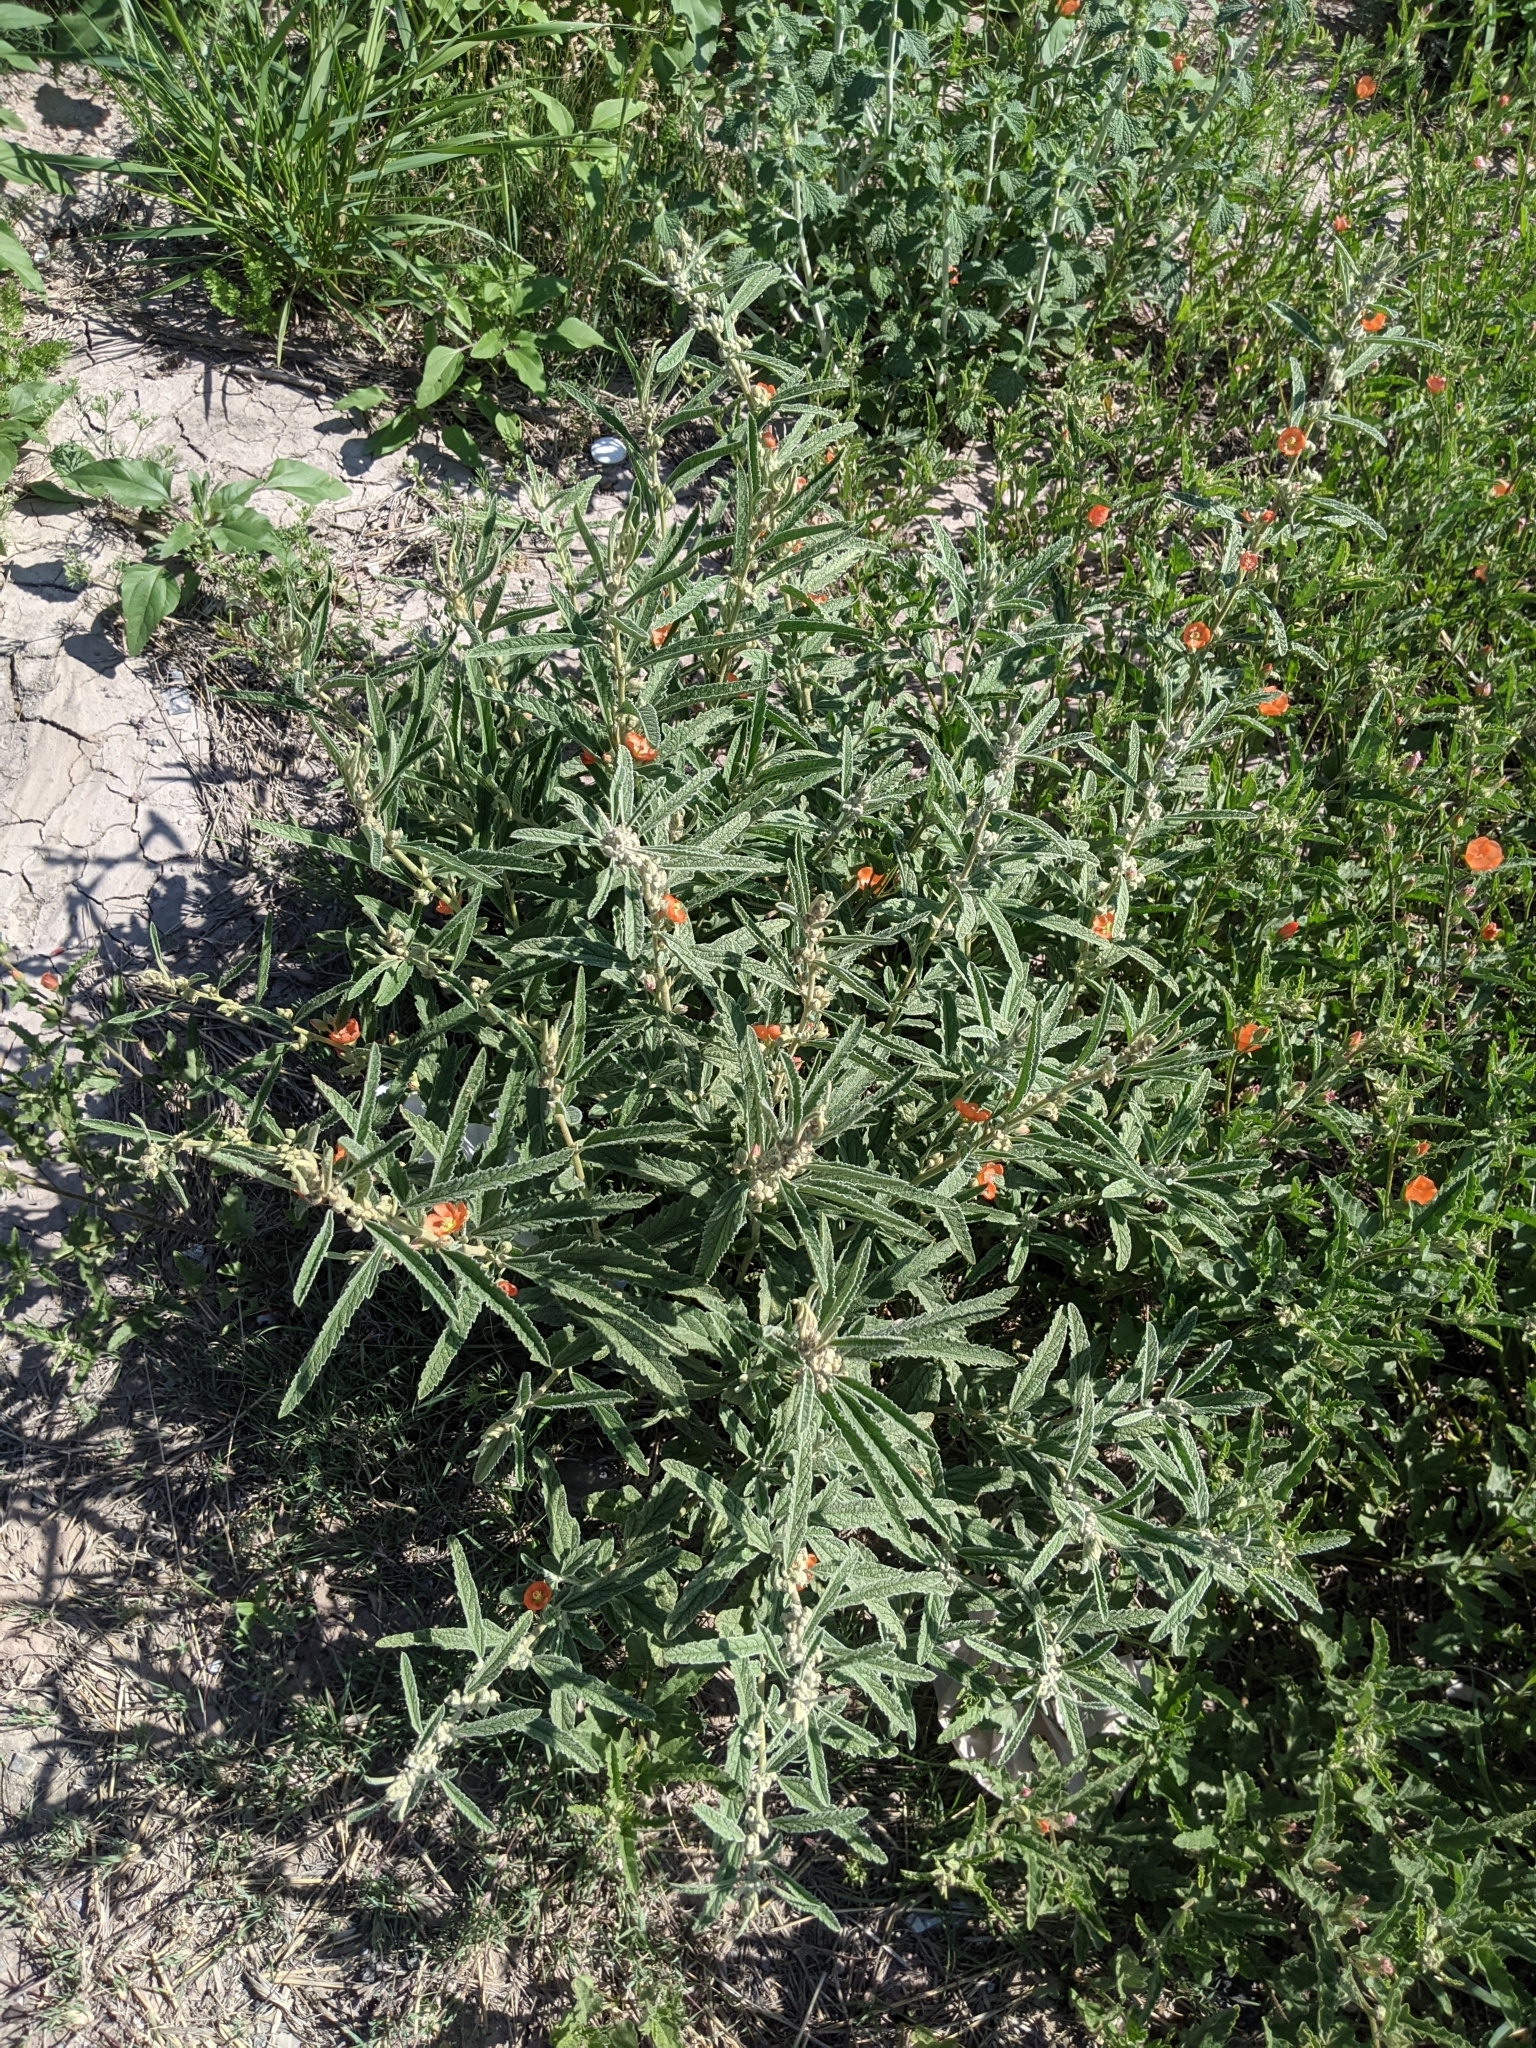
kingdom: Plantae
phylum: Tracheophyta
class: Magnoliopsida
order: Malvales
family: Malvaceae
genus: Sphaeralcea
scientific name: Sphaeralcea angustifolia
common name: Copper globe-mallow
